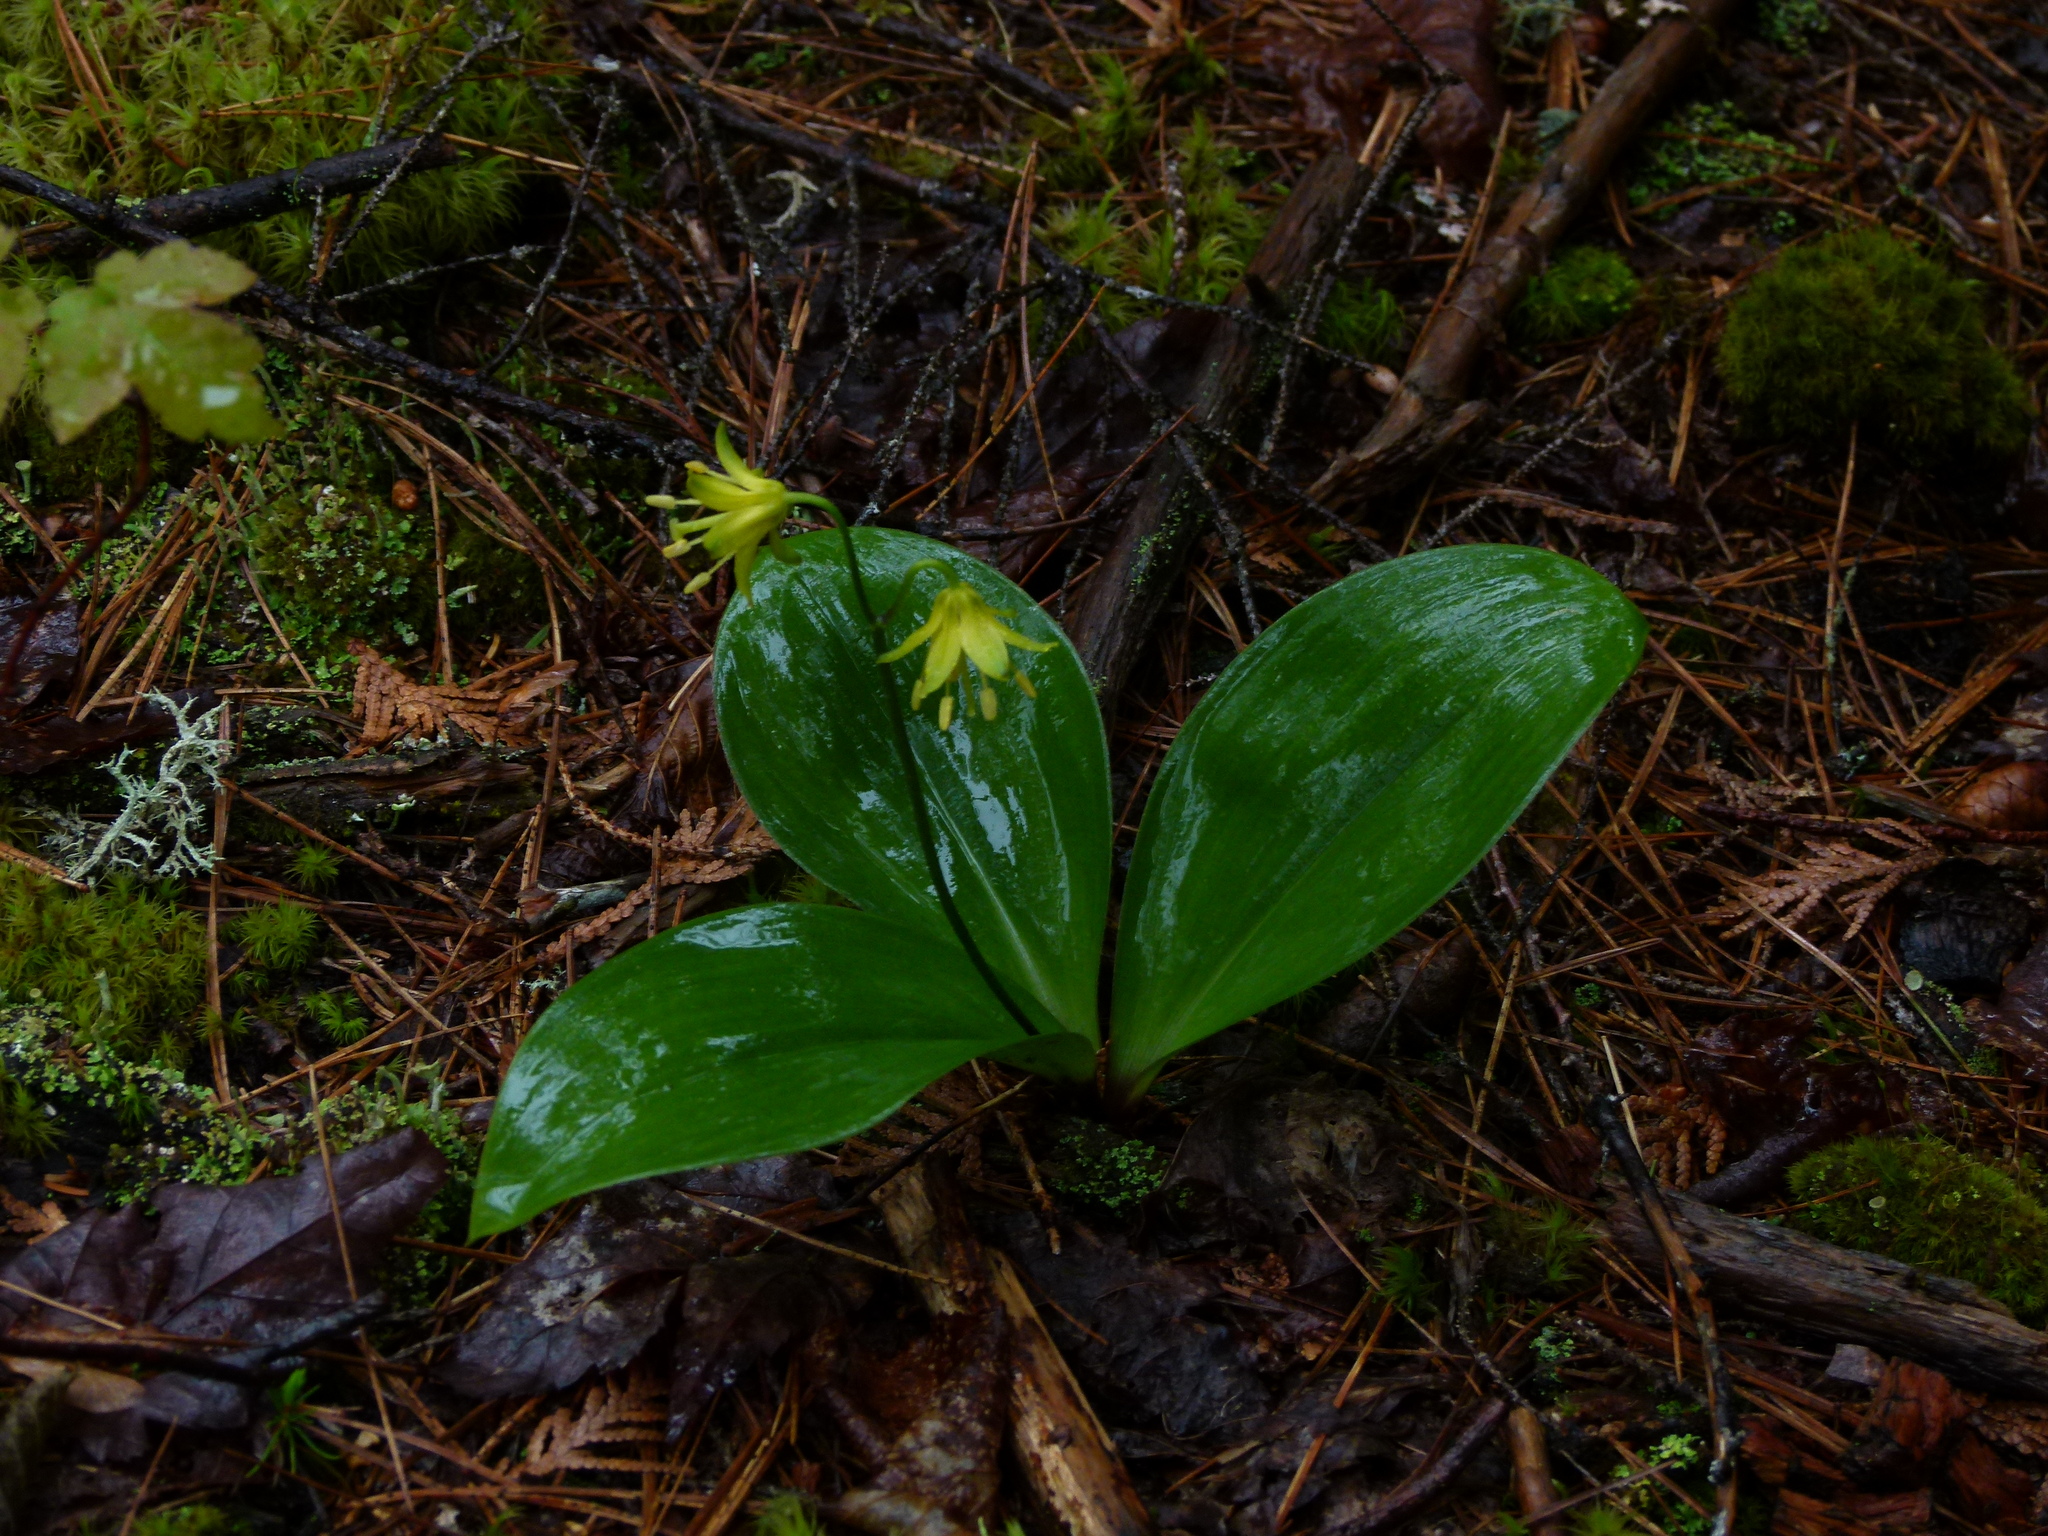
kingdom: Plantae
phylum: Tracheophyta
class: Liliopsida
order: Liliales
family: Liliaceae
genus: Clintonia
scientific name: Clintonia borealis
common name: Yellow clintonia
